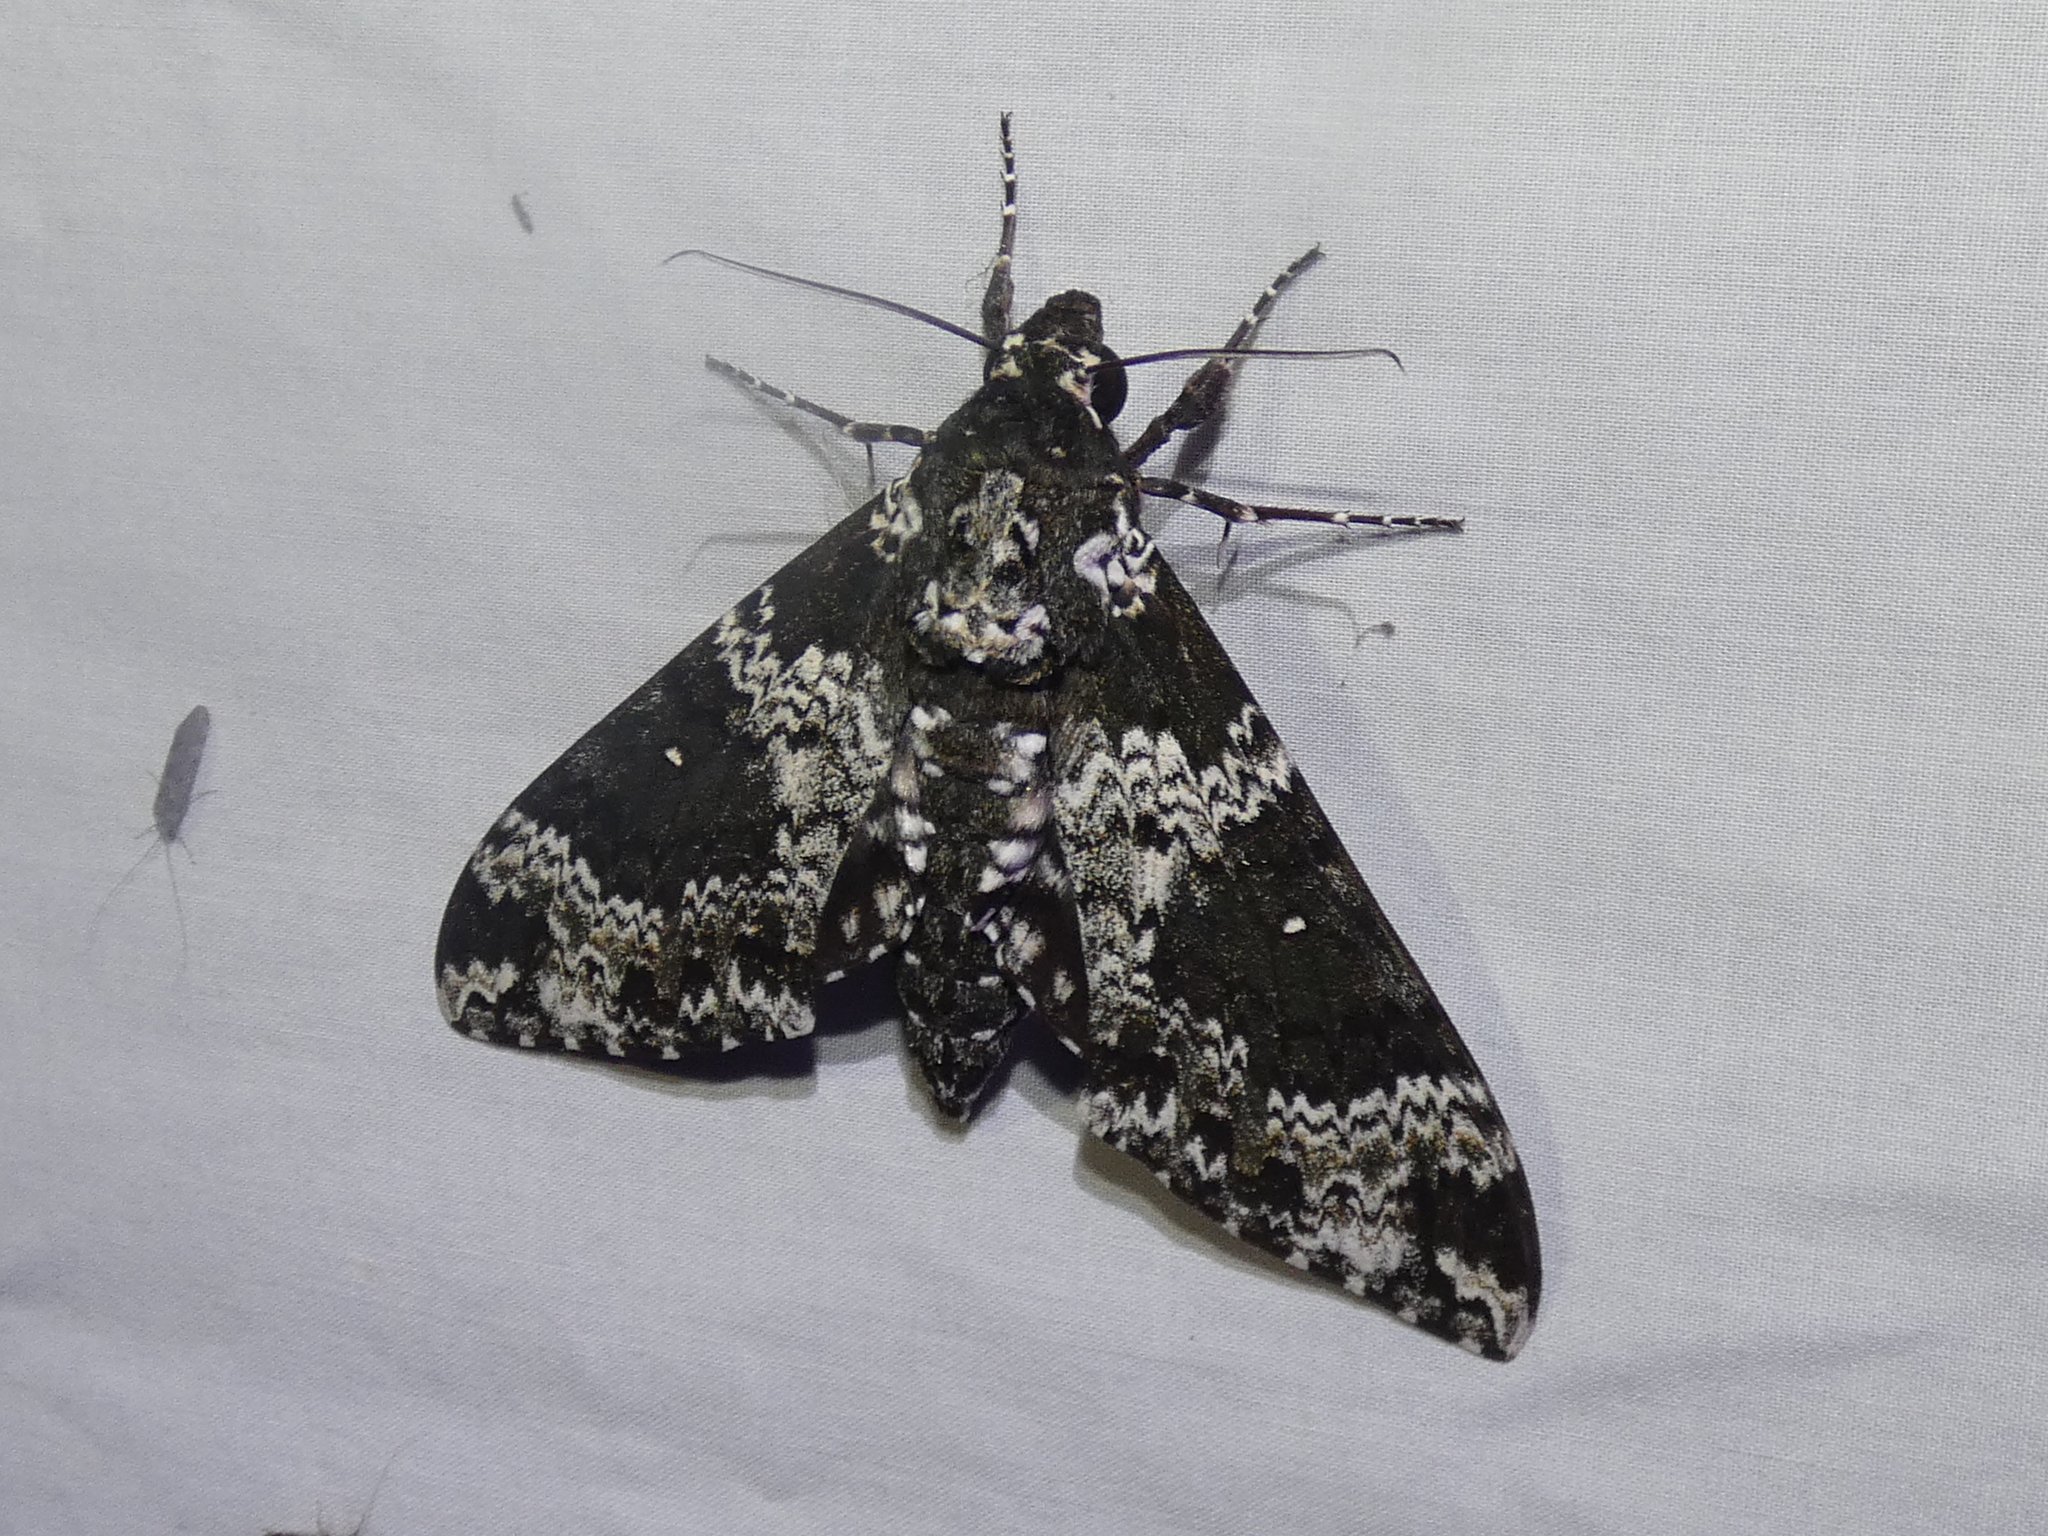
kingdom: Animalia
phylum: Arthropoda
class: Insecta
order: Lepidoptera
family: Sphingidae
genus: Manduca
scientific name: Manduca rustica
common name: Rustic sphinx
